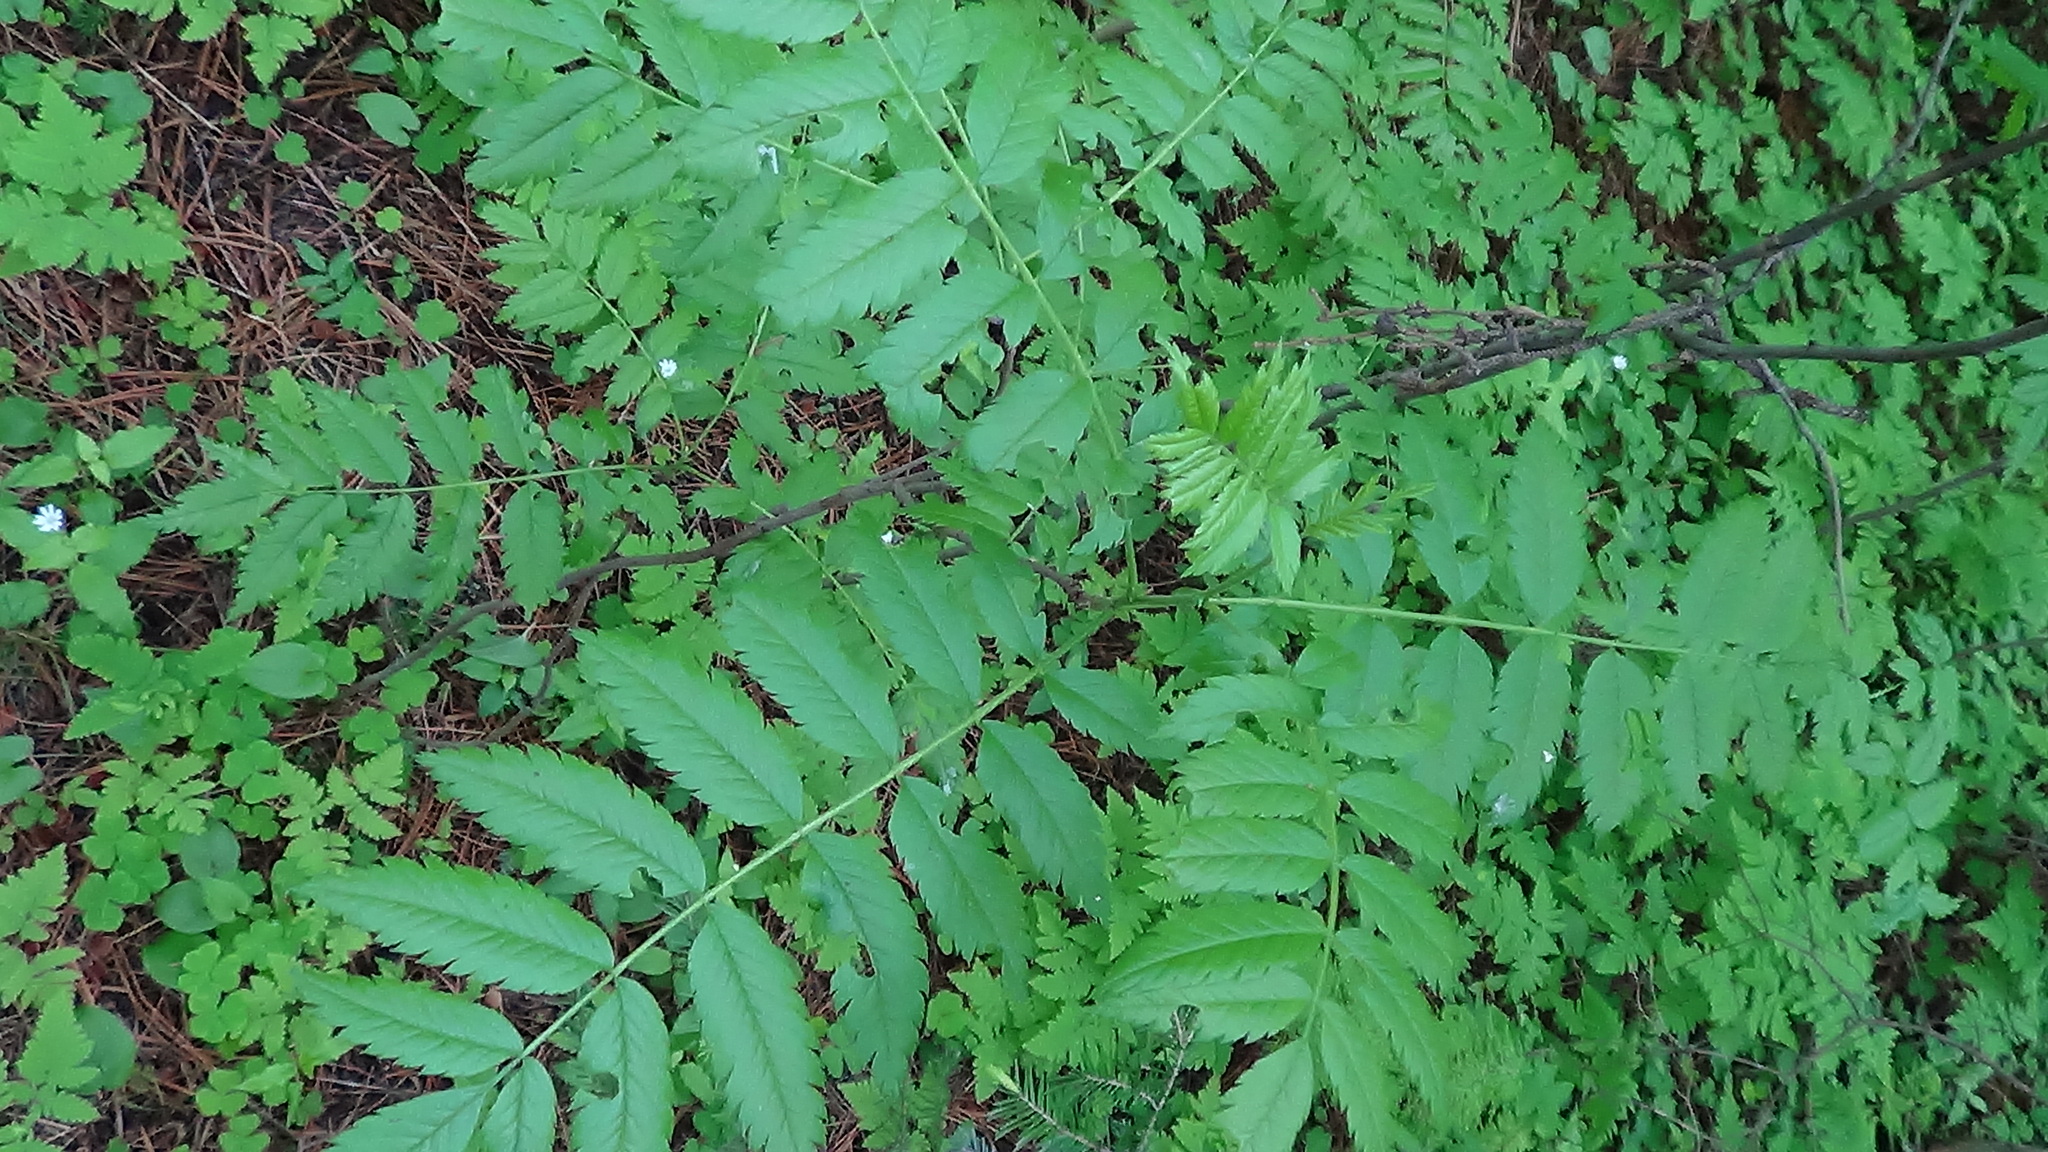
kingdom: Plantae
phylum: Tracheophyta
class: Magnoliopsida
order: Rosales
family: Rosaceae
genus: Sorbus
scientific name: Sorbus aucuparia
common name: Rowan
